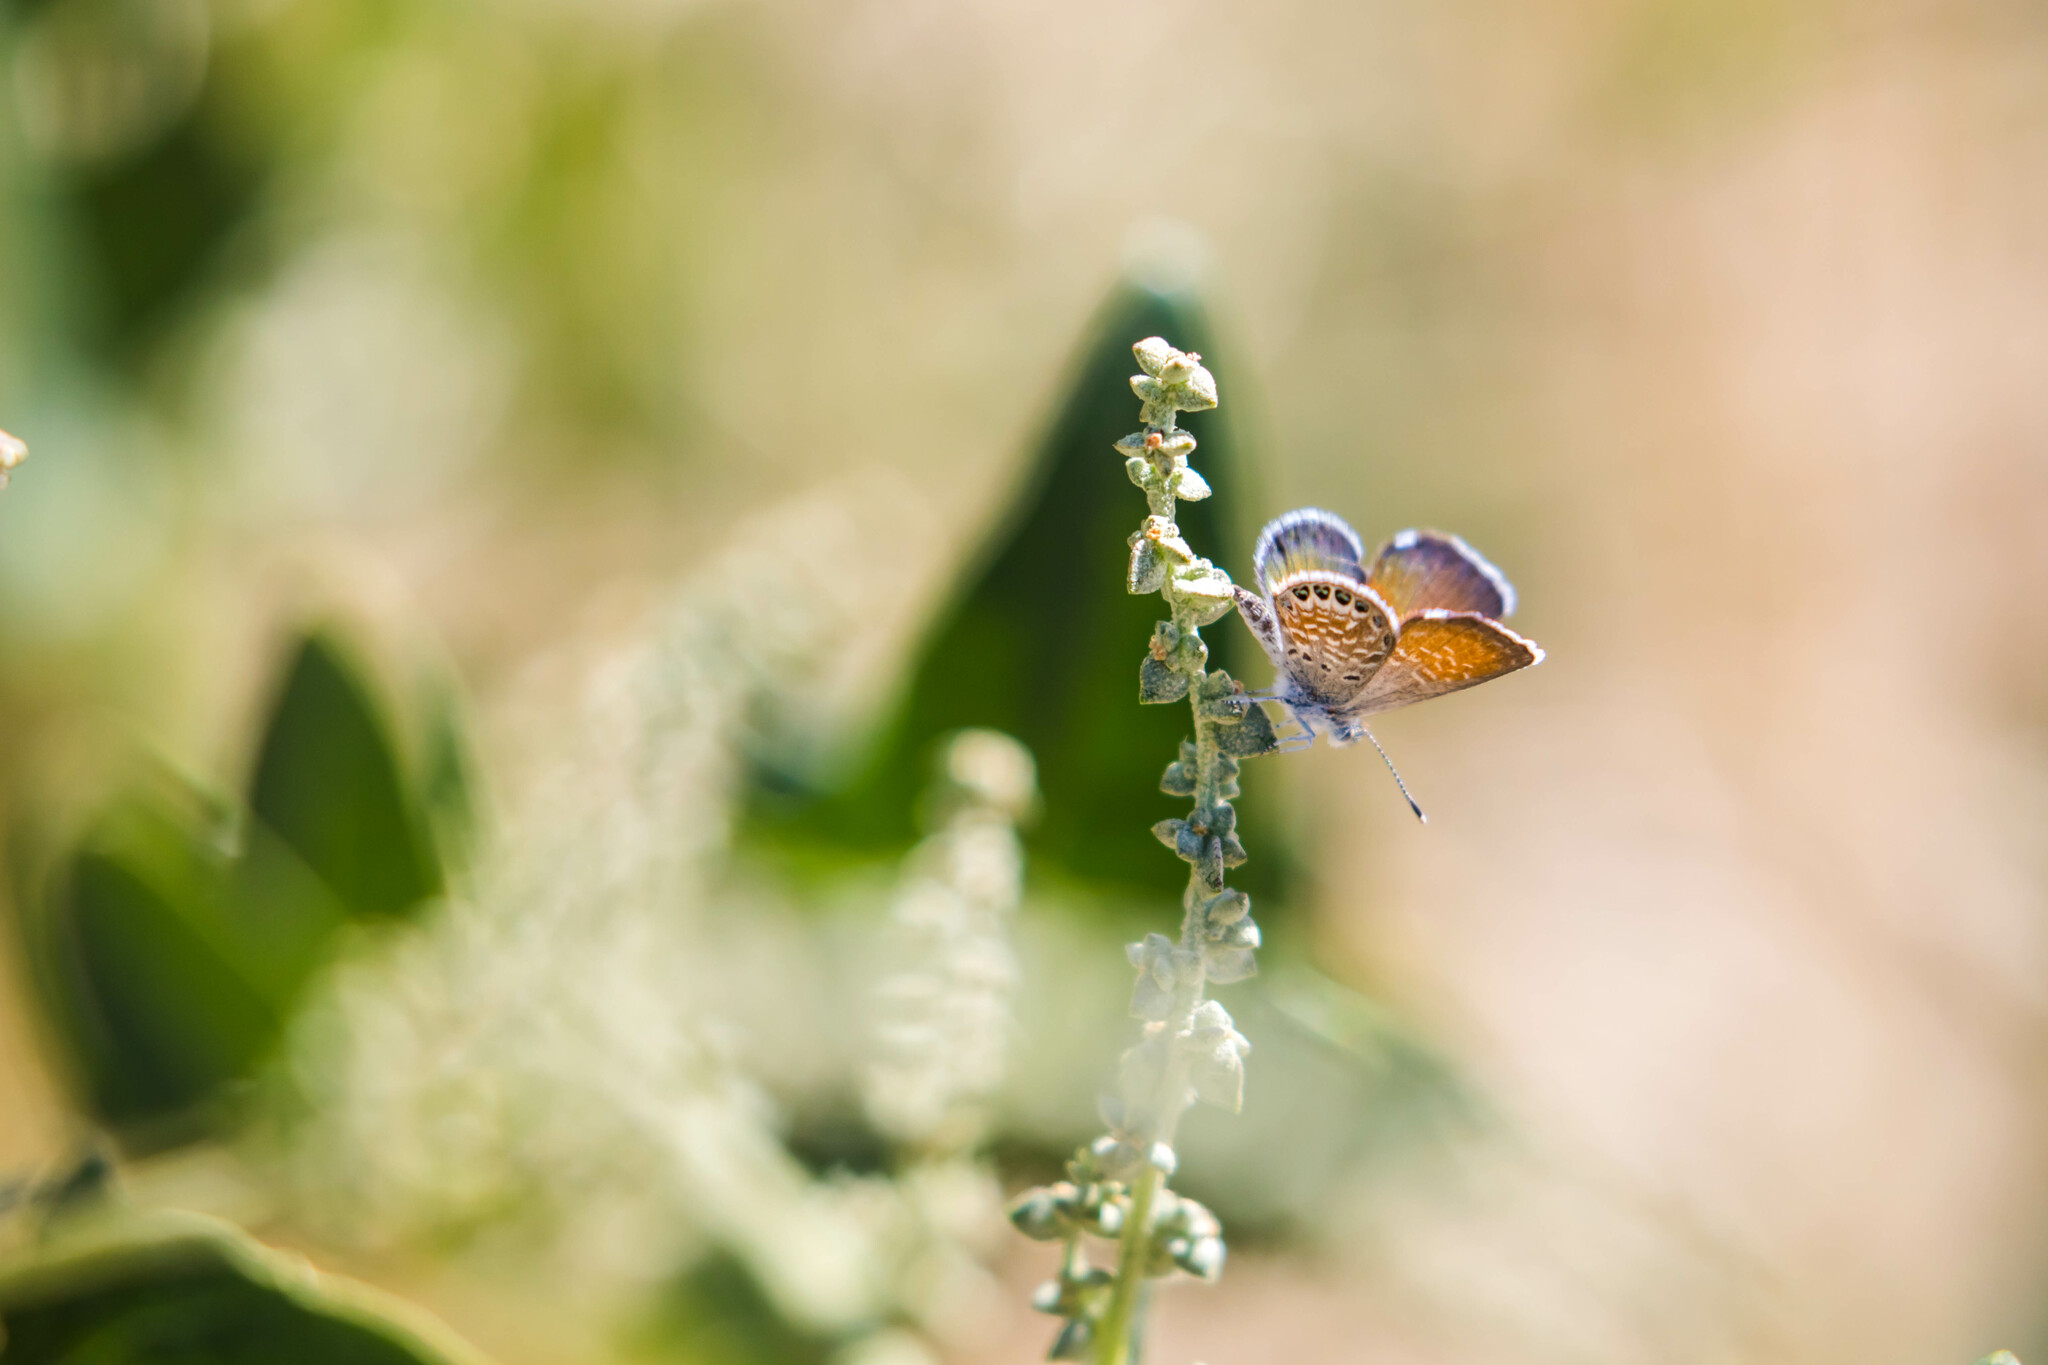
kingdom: Animalia
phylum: Arthropoda
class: Insecta
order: Lepidoptera
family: Lycaenidae
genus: Brephidium
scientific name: Brephidium exilis
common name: Pygmy blue
